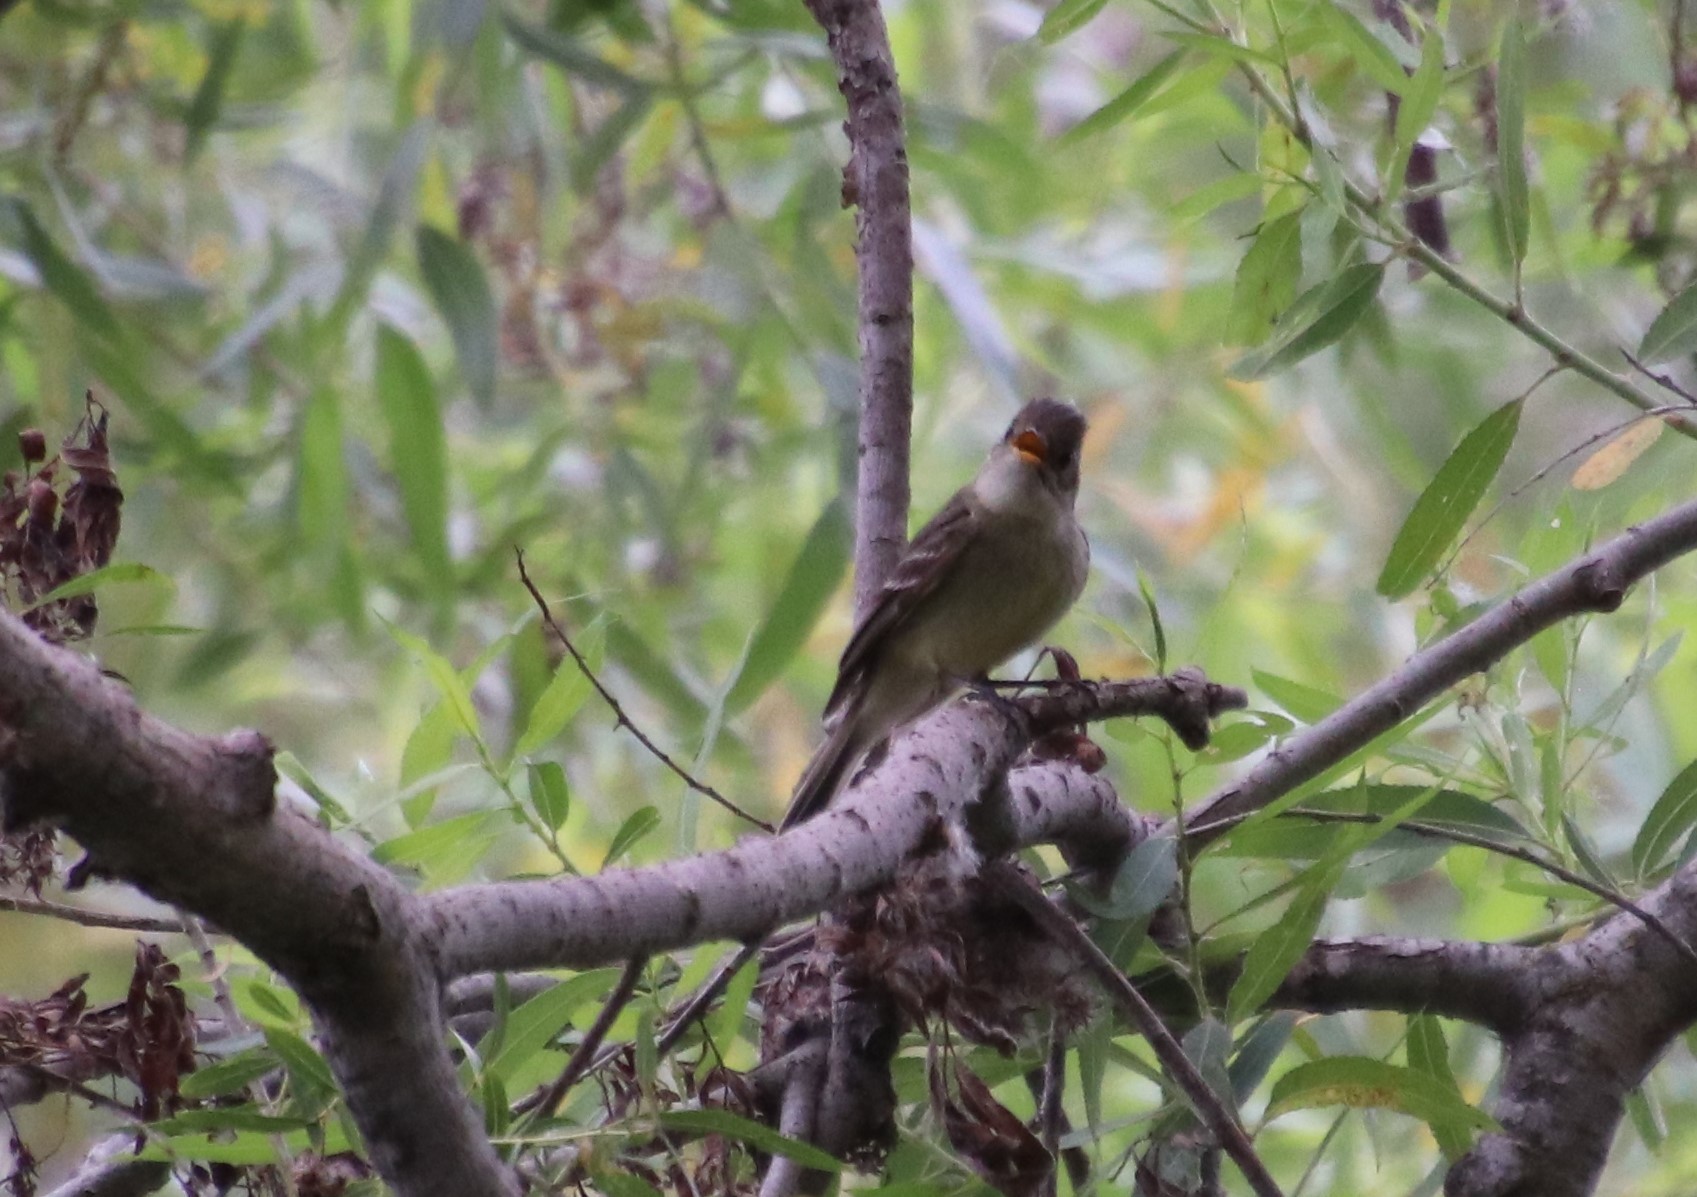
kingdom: Animalia
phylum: Chordata
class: Aves
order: Passeriformes
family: Tyrannidae
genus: Empidonax
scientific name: Empidonax difficilis
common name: Pacific-slope flycatcher
